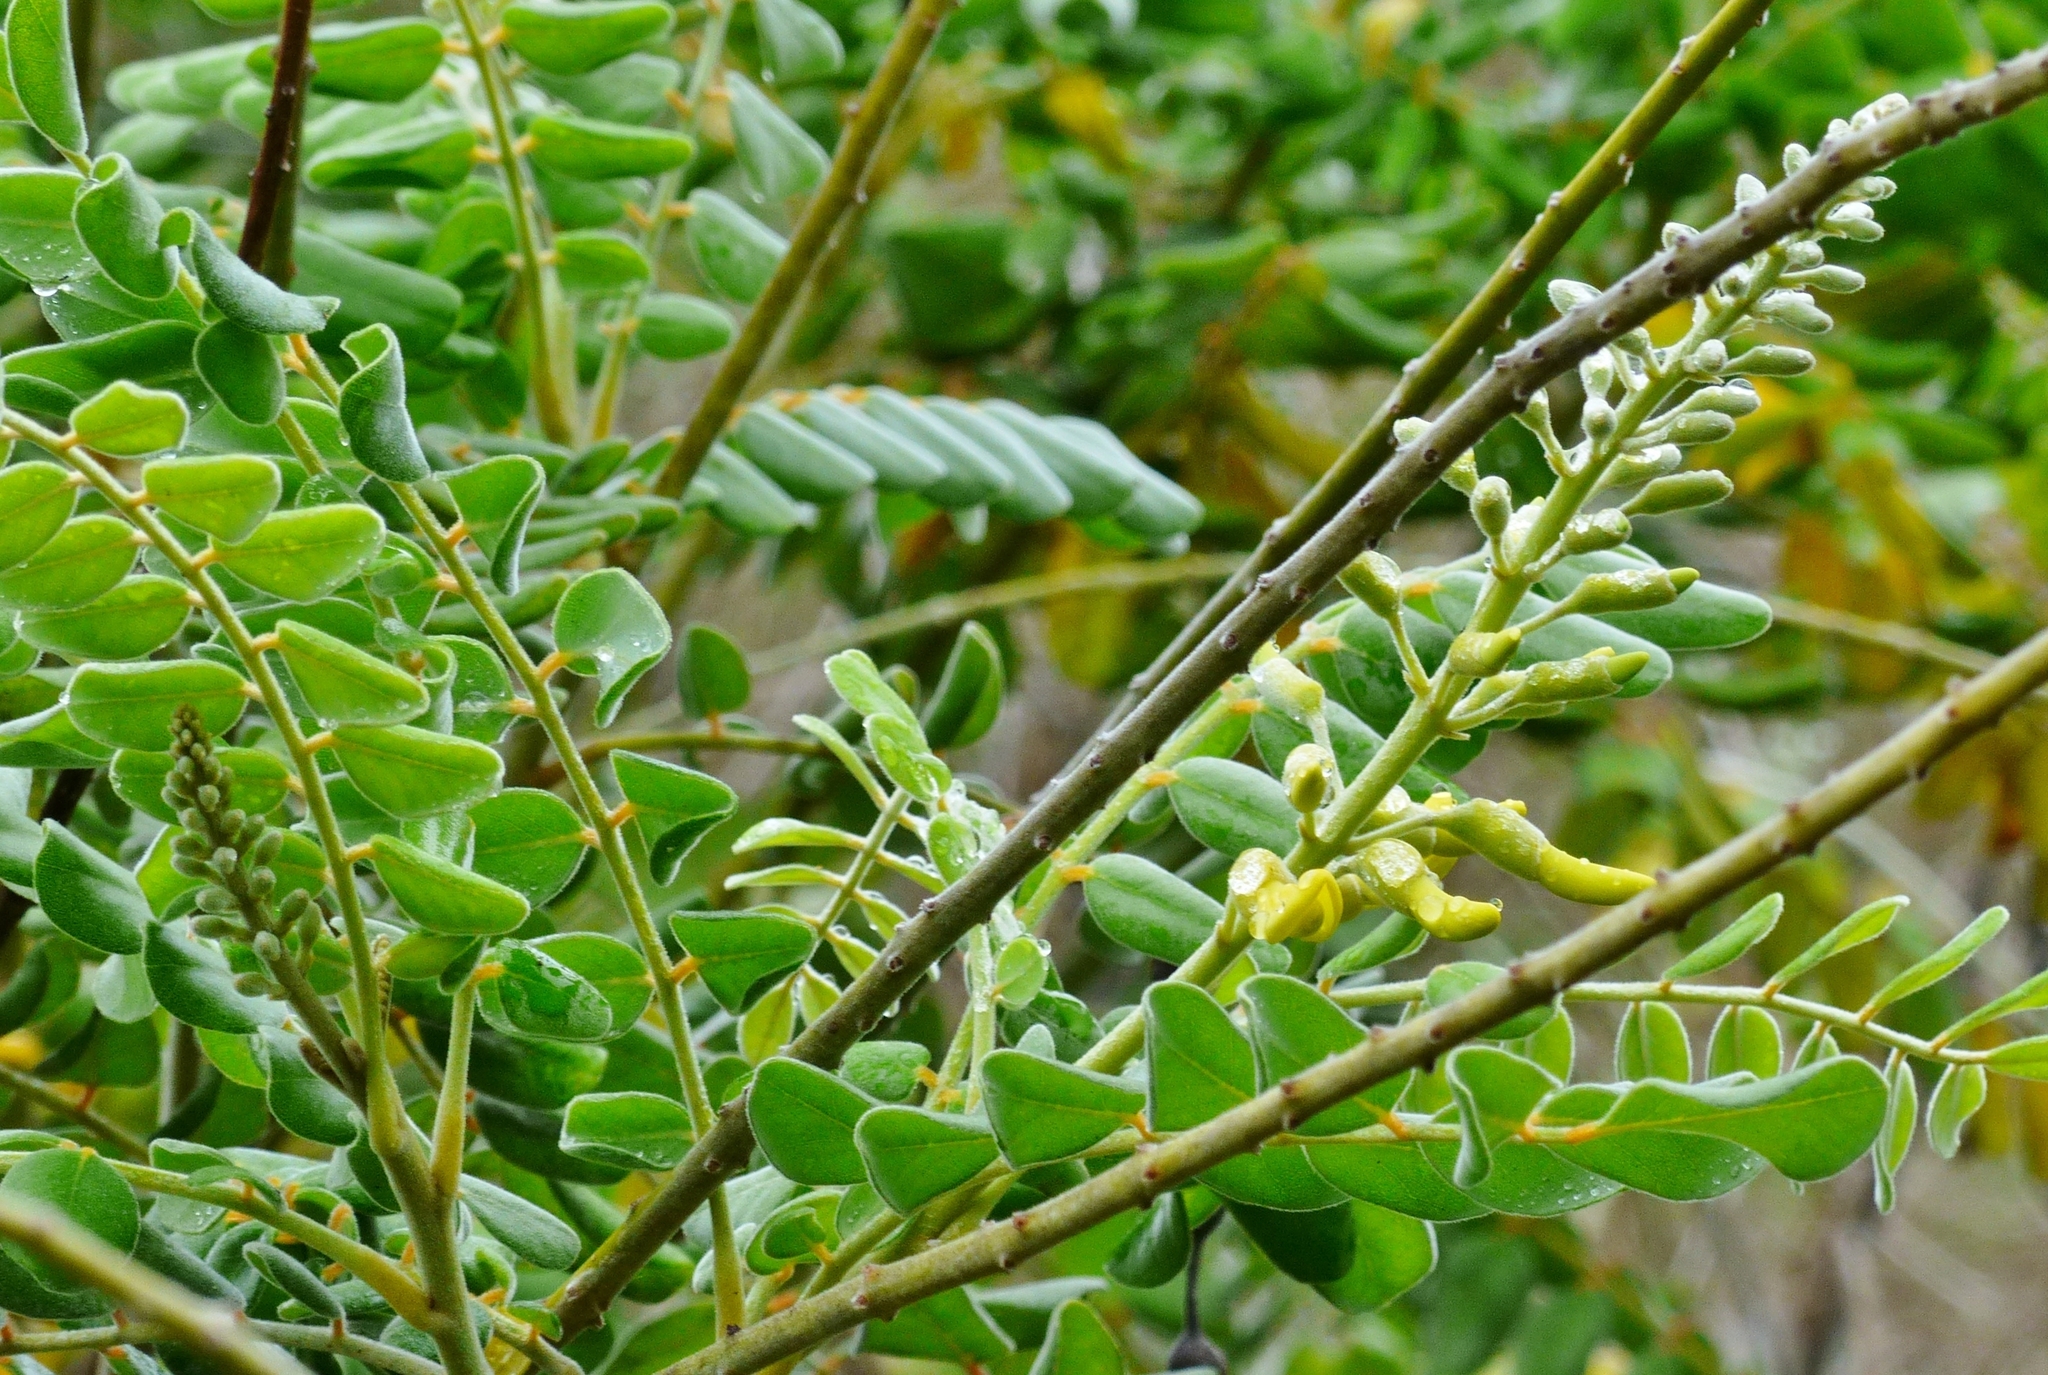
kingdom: Plantae
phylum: Tracheophyta
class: Magnoliopsida
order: Fabales
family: Fabaceae
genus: Sophora
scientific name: Sophora tomentosa
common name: Yellow necklacepod
